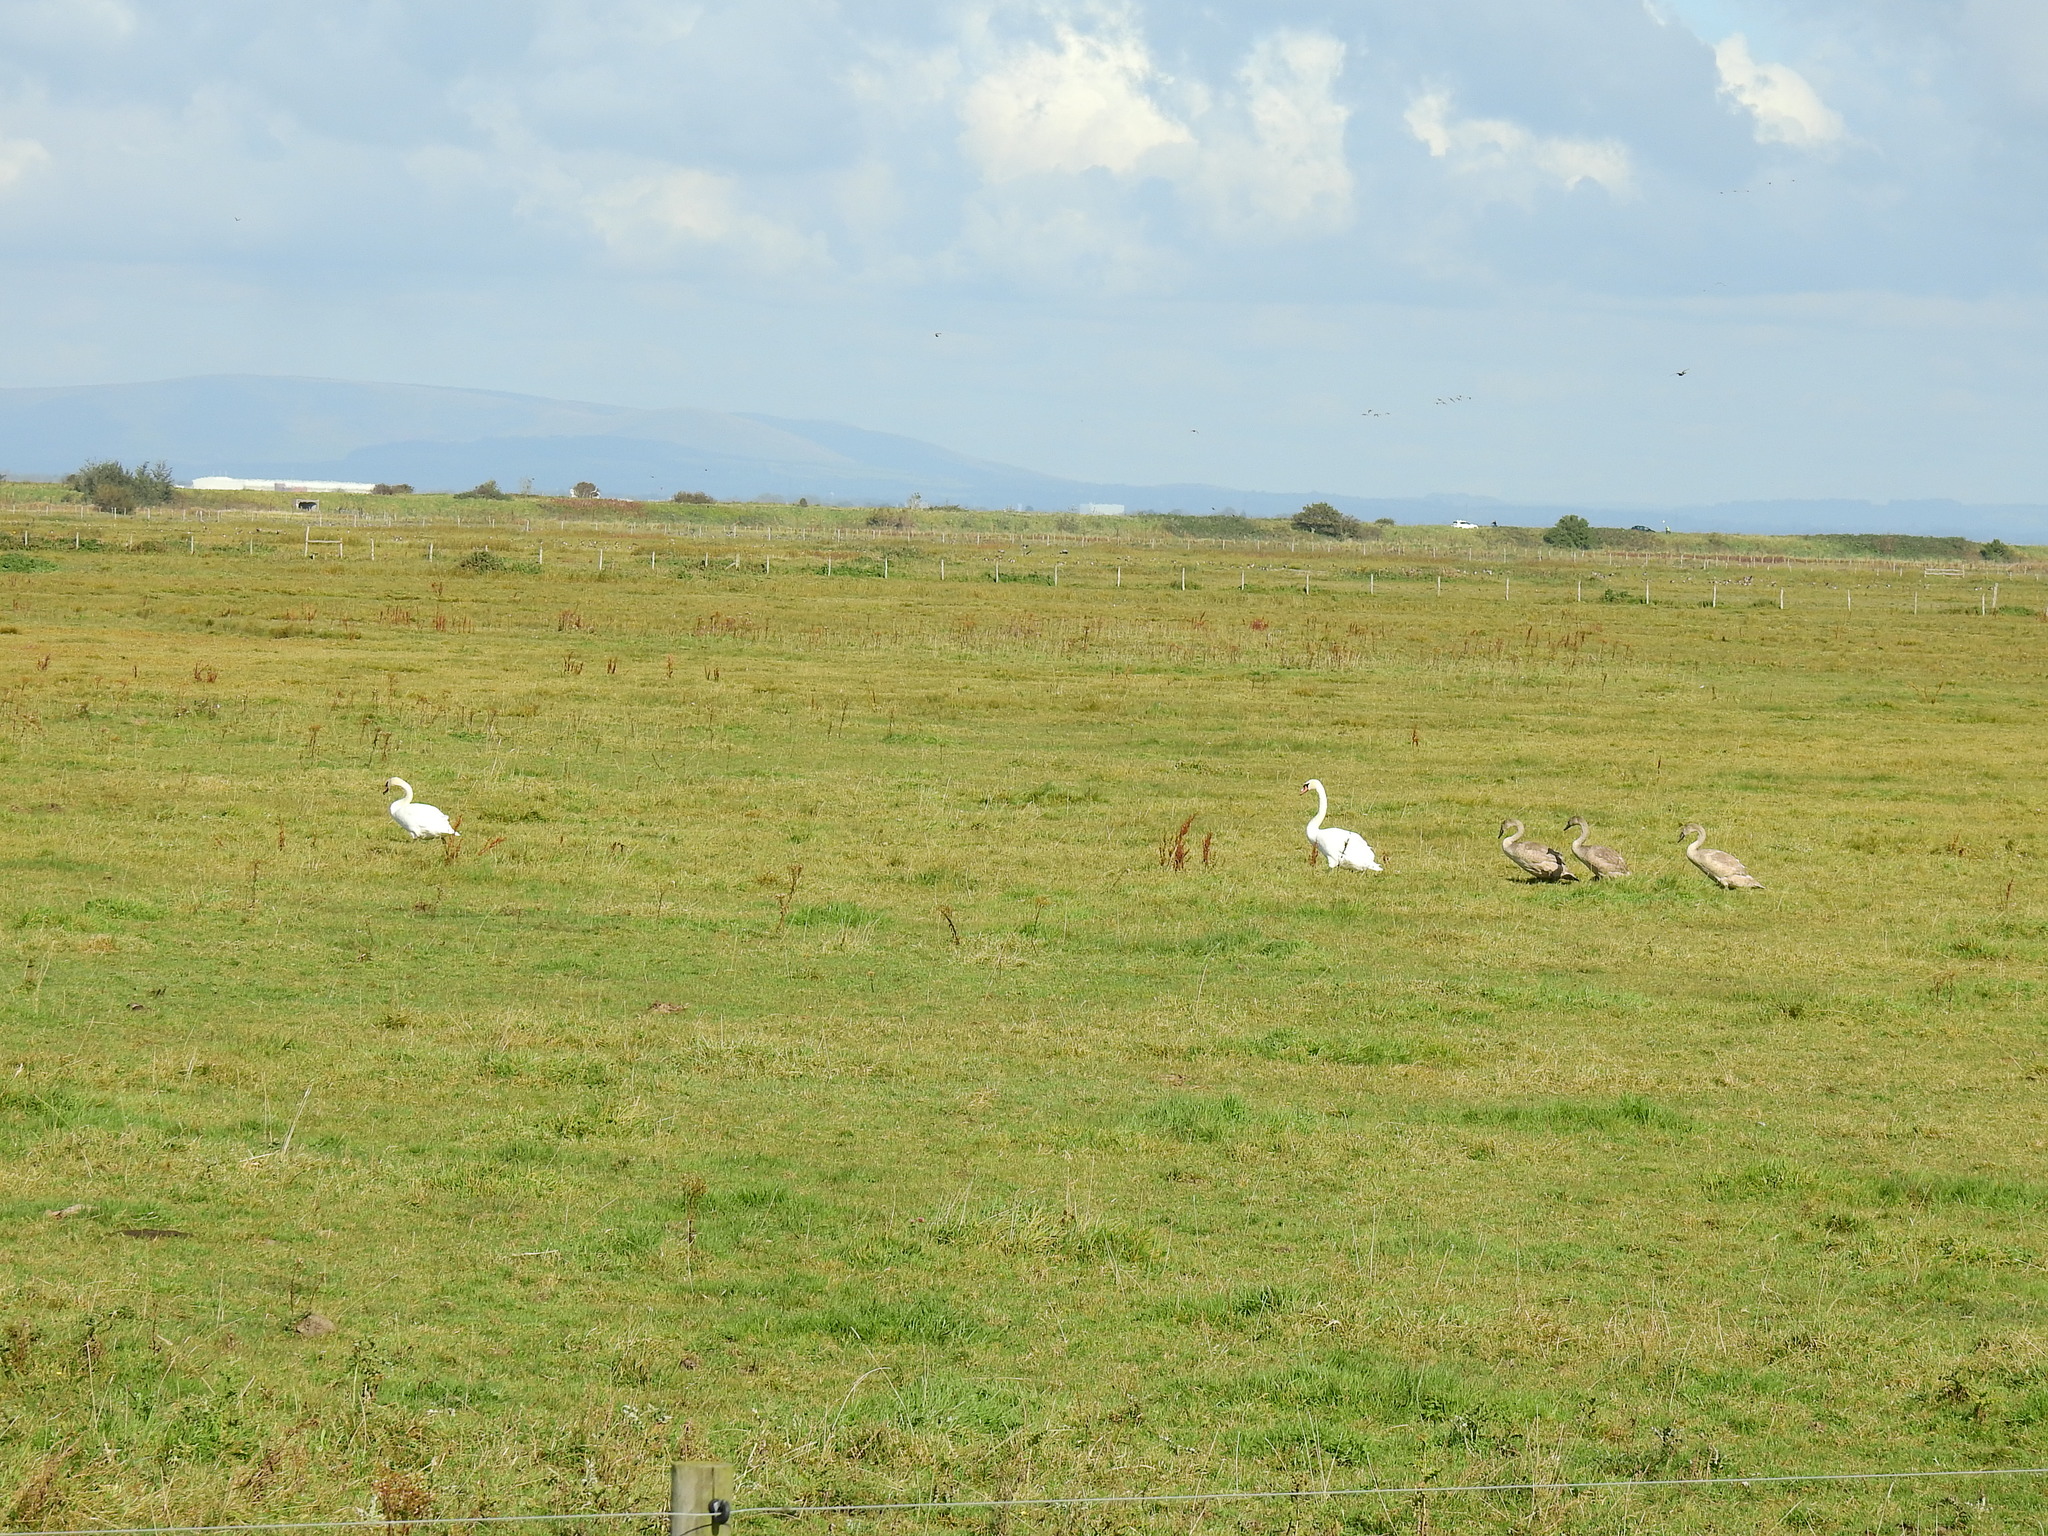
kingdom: Animalia
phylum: Chordata
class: Aves
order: Anseriformes
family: Anatidae
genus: Cygnus
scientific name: Cygnus olor
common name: Mute swan
